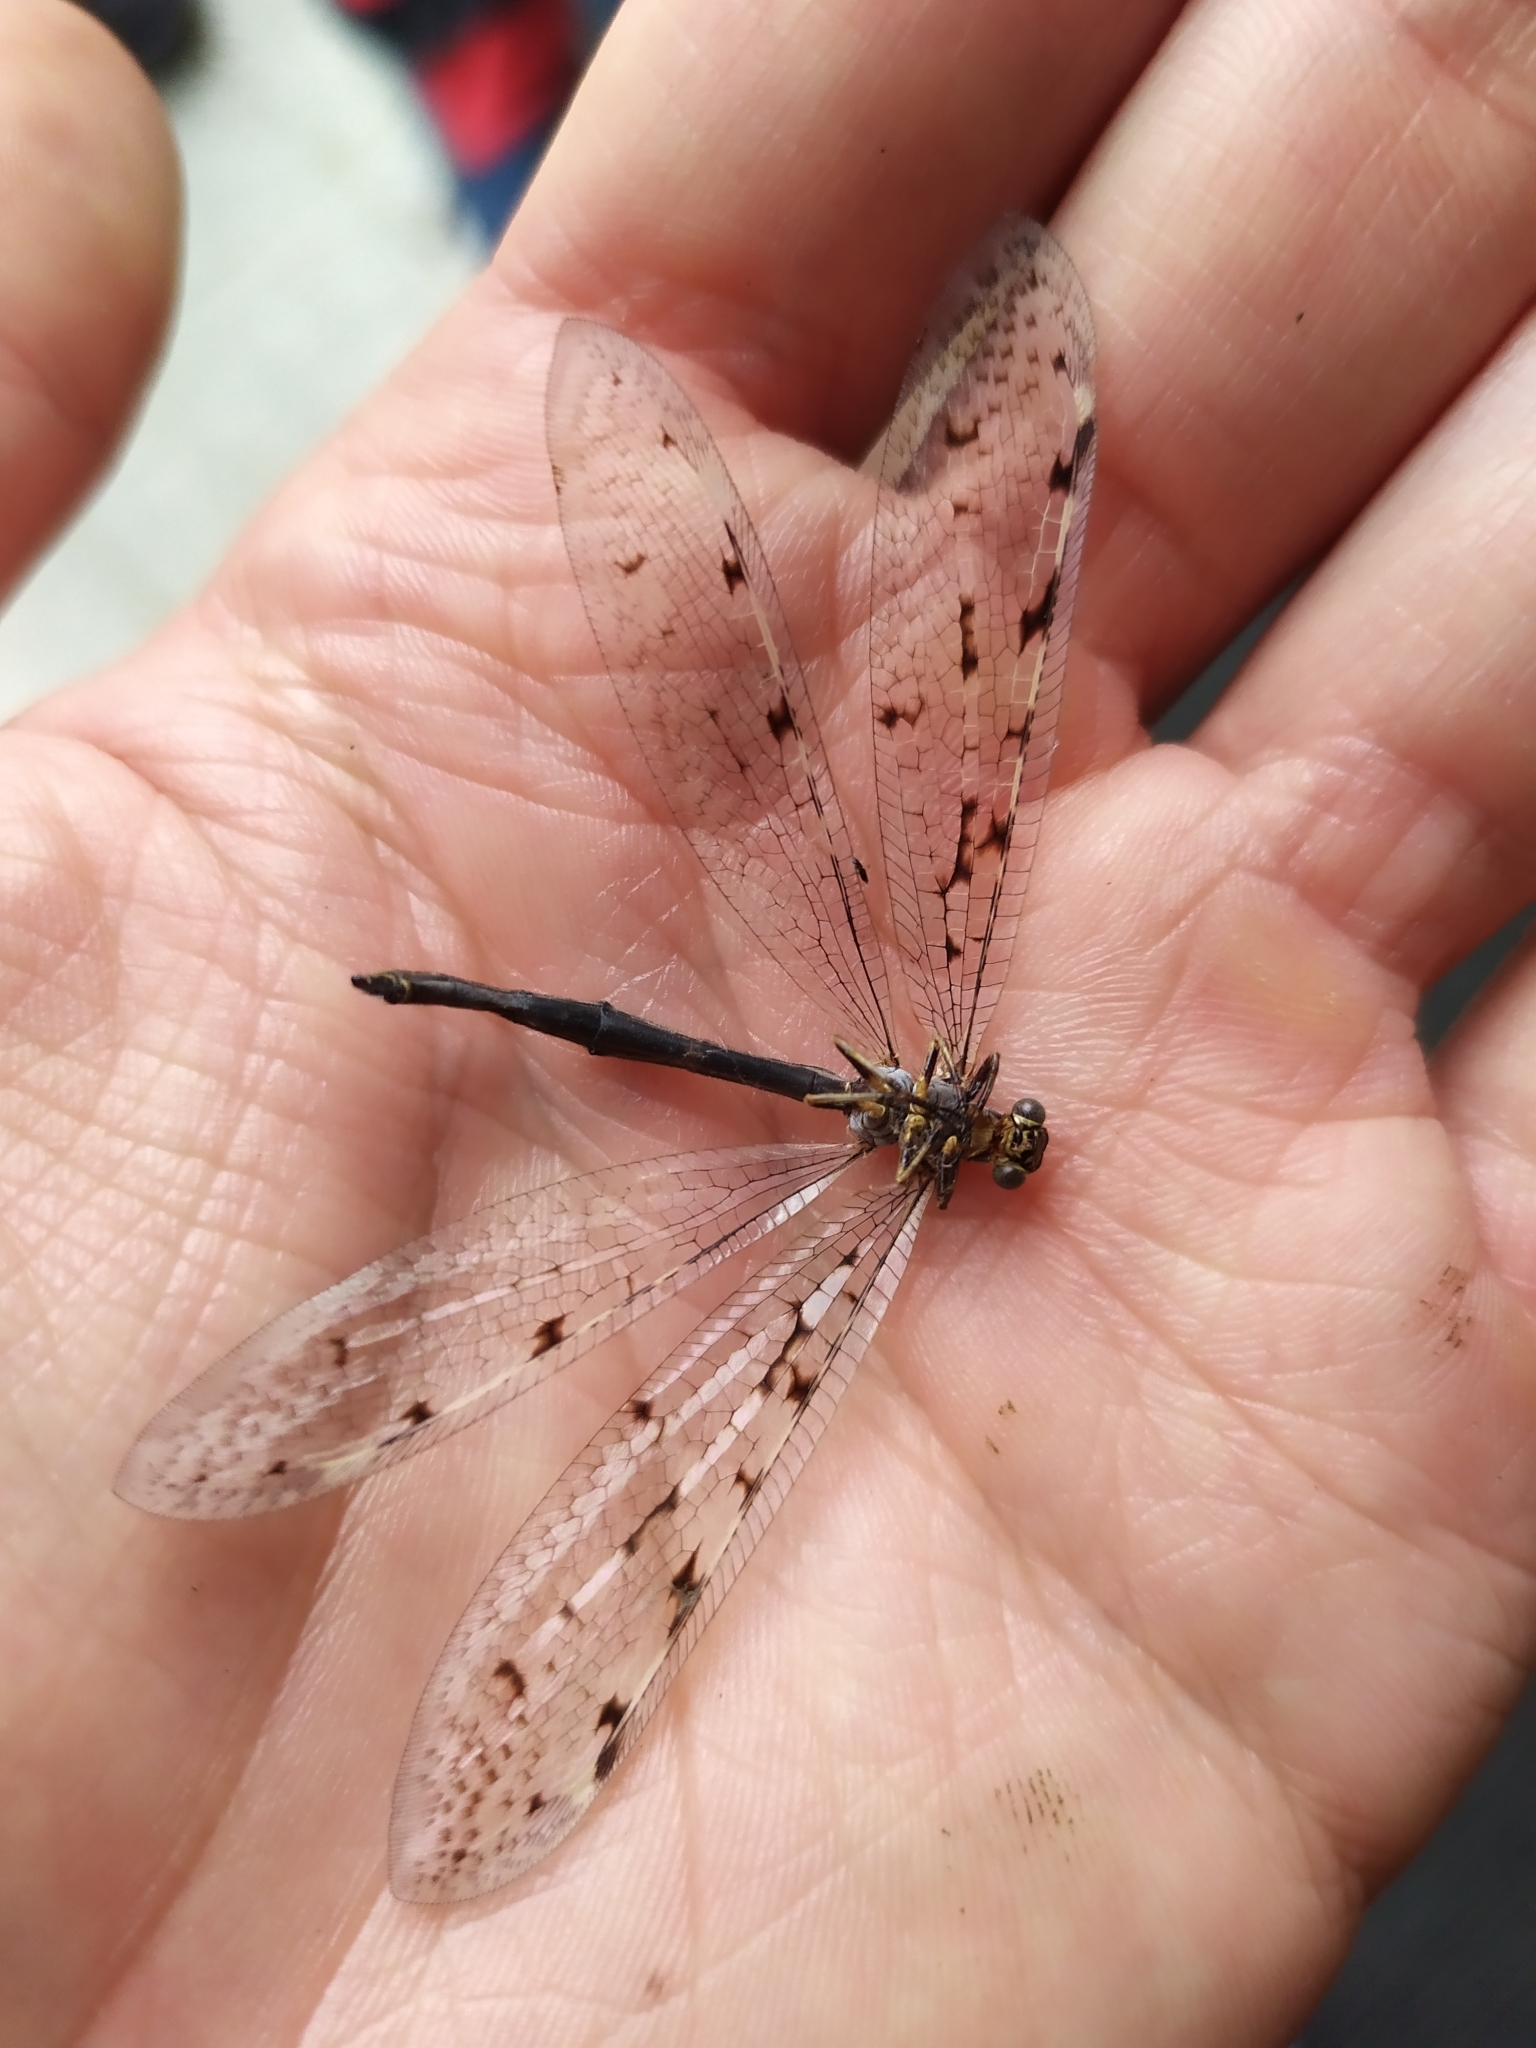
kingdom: Animalia
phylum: Arthropoda
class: Insecta
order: Neuroptera
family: Myrmeleontidae
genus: Euroleon
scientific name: Euroleon nostras
